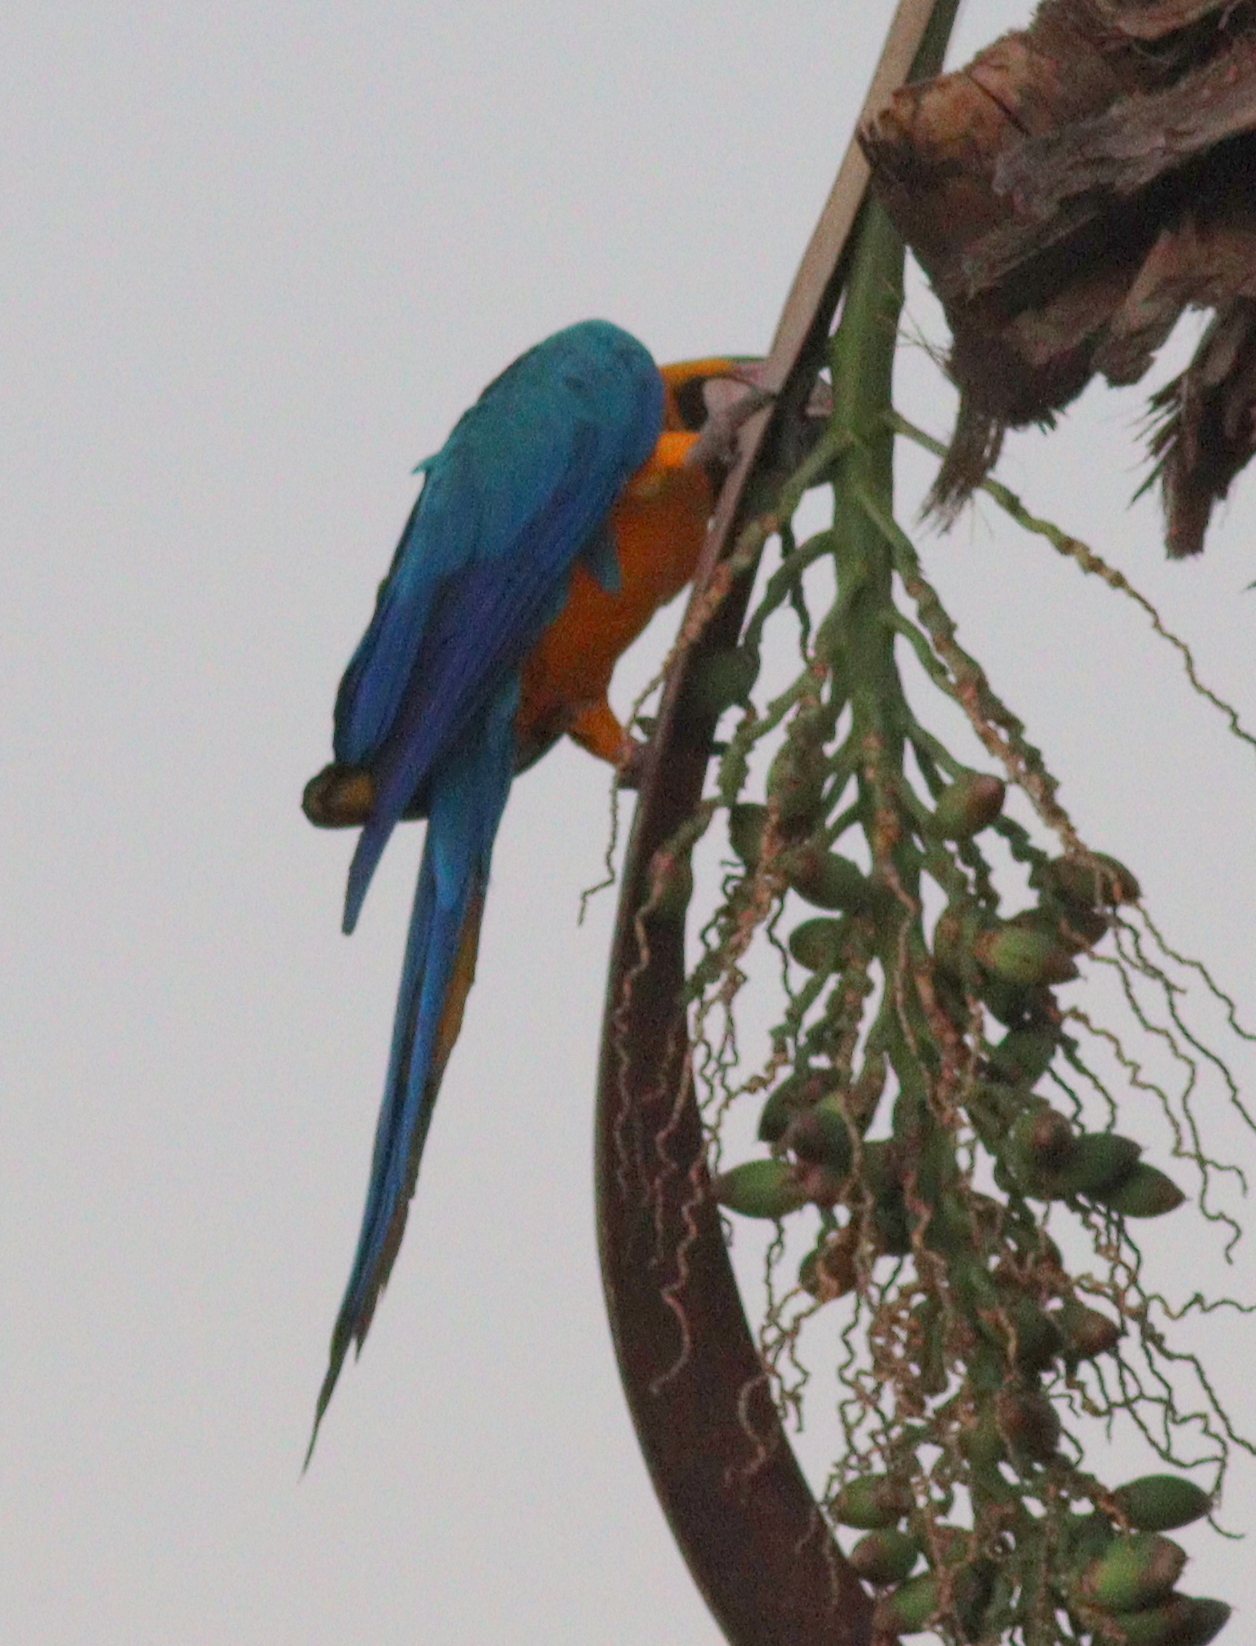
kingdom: Animalia
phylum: Chordata
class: Aves
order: Psittaciformes
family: Psittacidae
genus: Ara
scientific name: Ara ararauna
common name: Blue-and-yellow macaw
